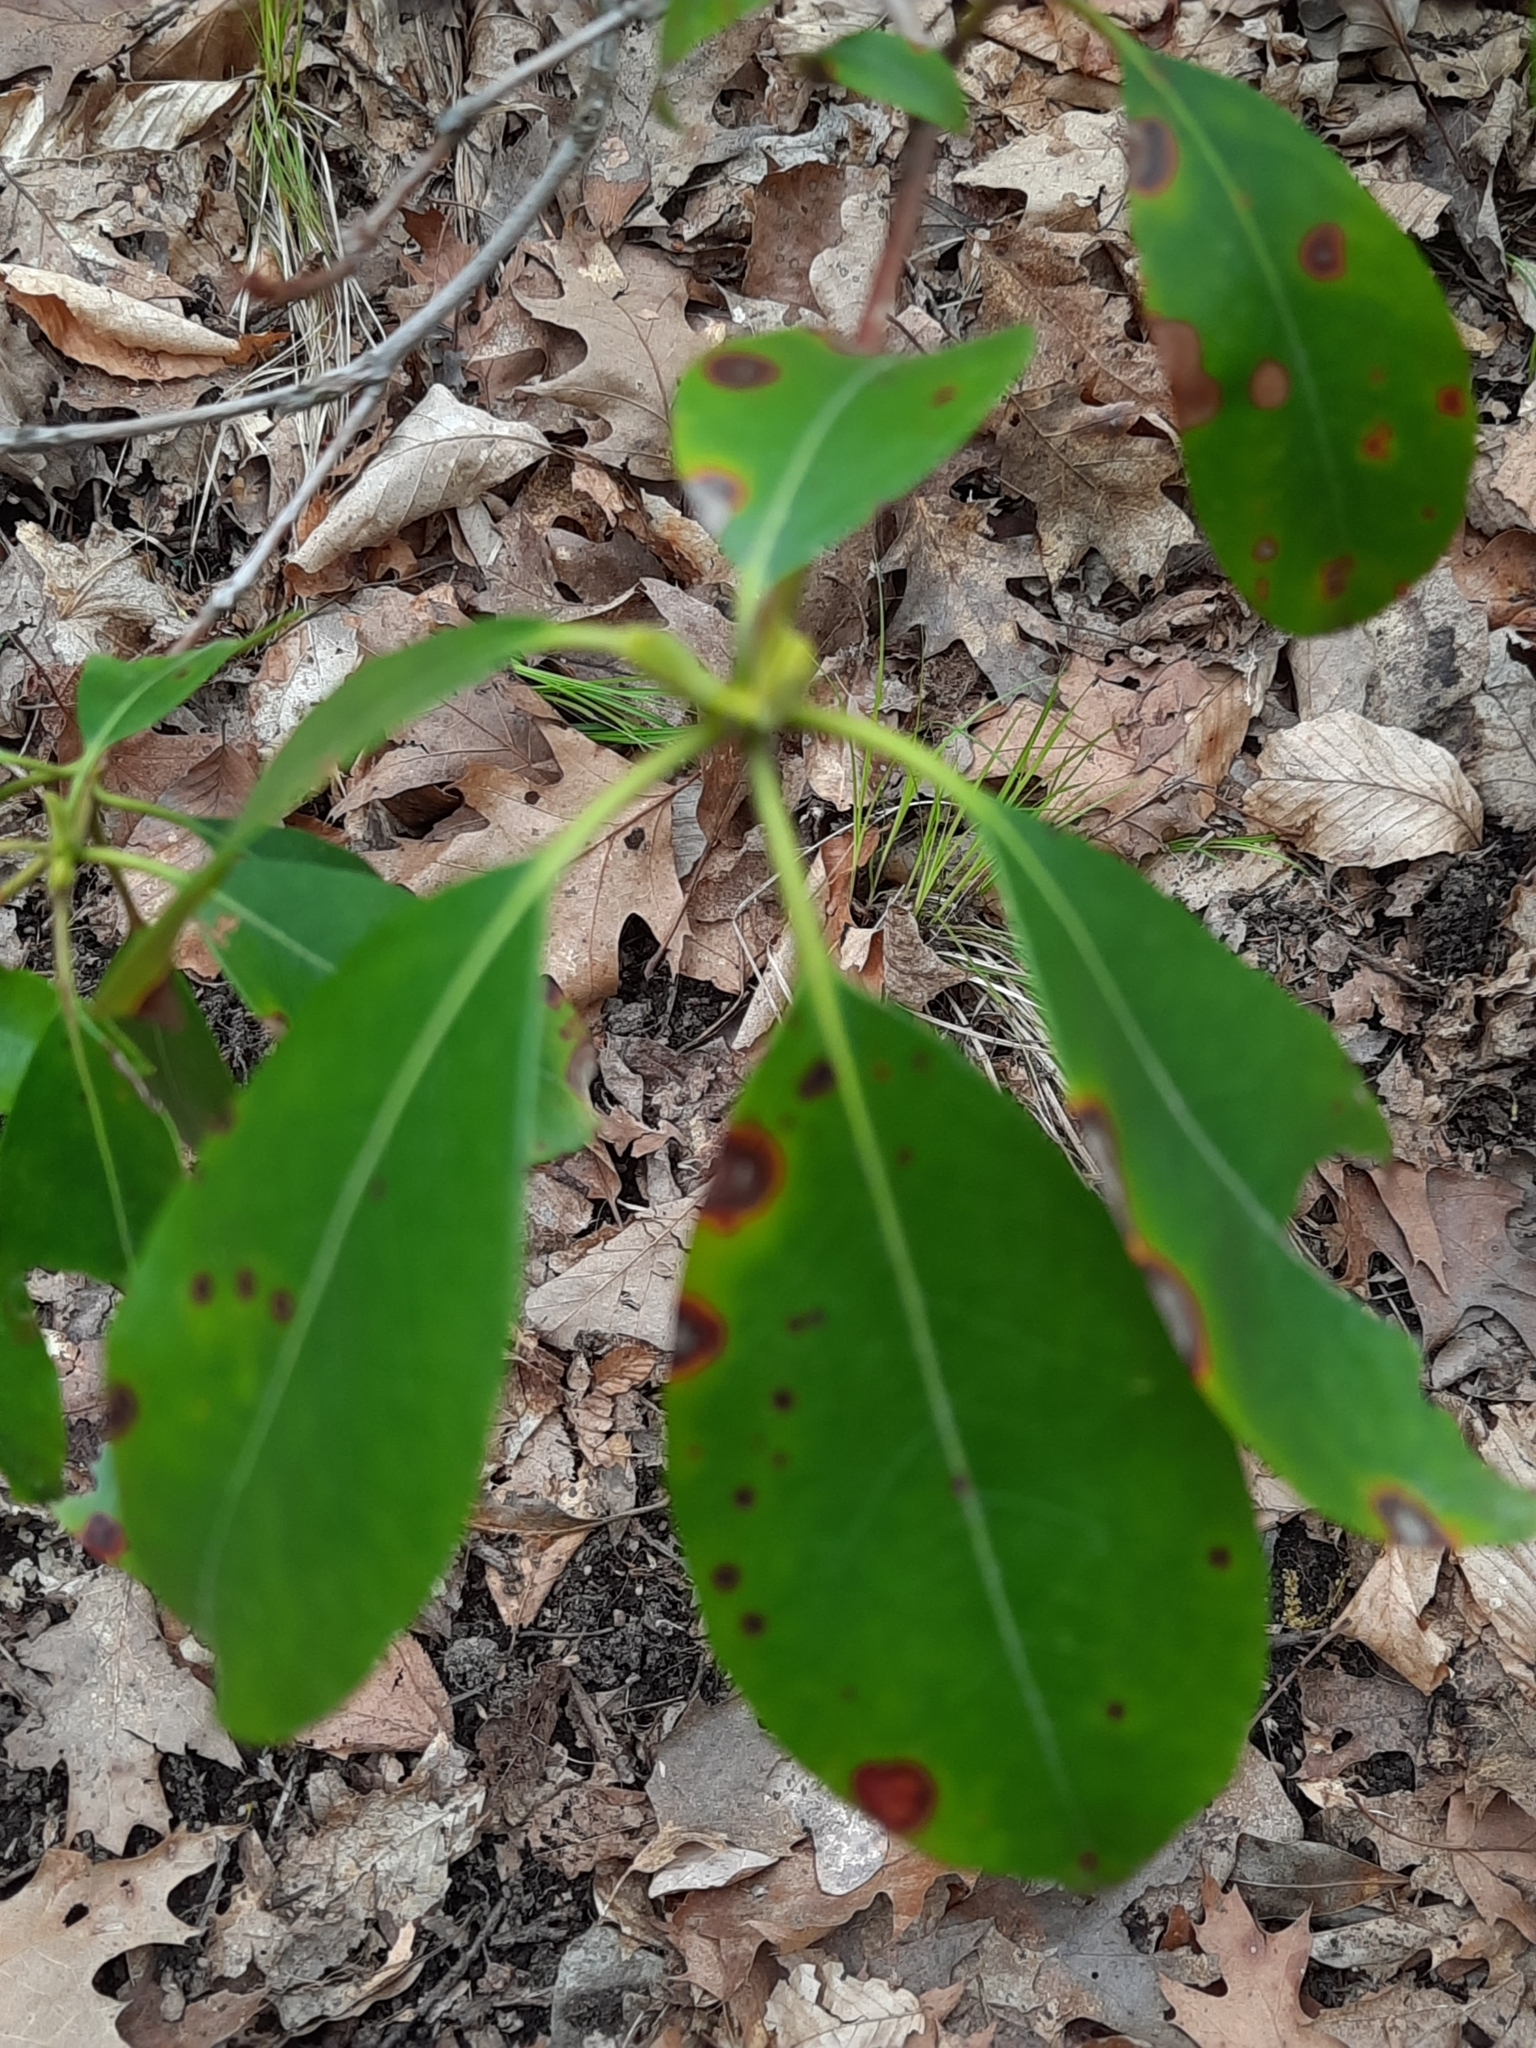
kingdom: Plantae
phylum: Tracheophyta
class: Magnoliopsida
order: Ericales
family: Ericaceae
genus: Kalmia
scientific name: Kalmia latifolia
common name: Mountain-laurel
